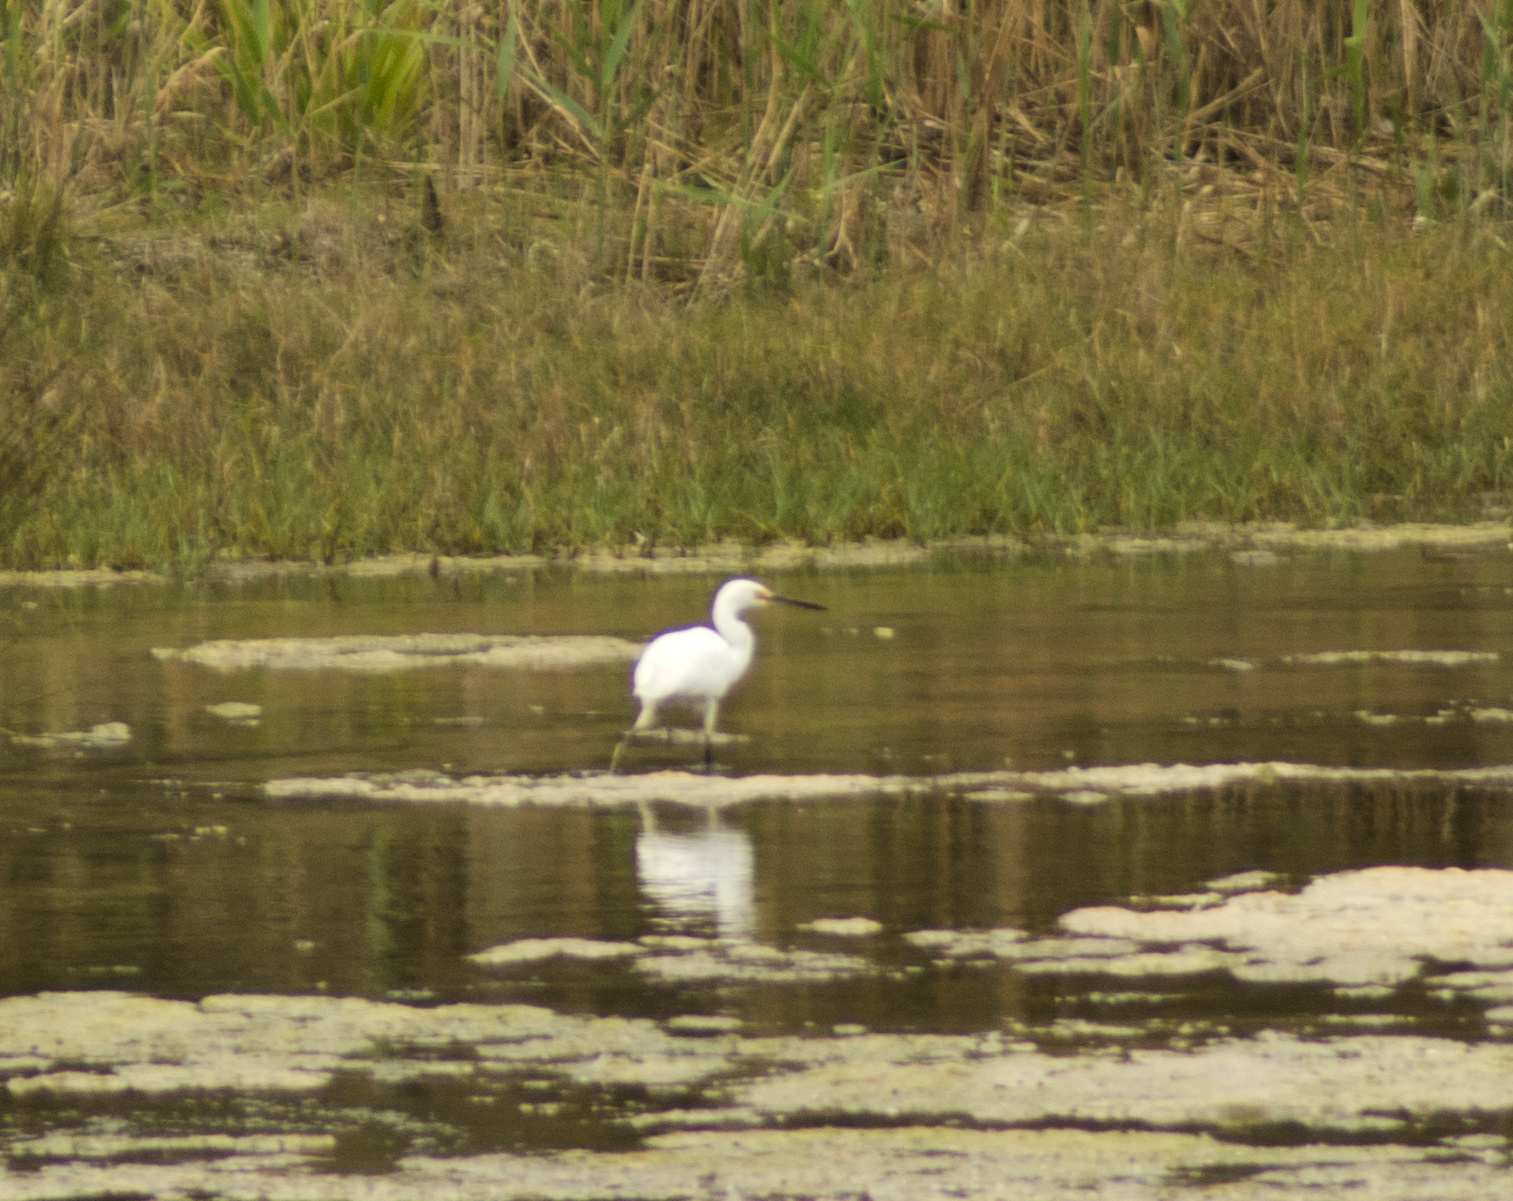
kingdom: Animalia
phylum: Chordata
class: Aves
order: Pelecaniformes
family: Ardeidae
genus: Egretta
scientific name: Egretta garzetta
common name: Little egret
